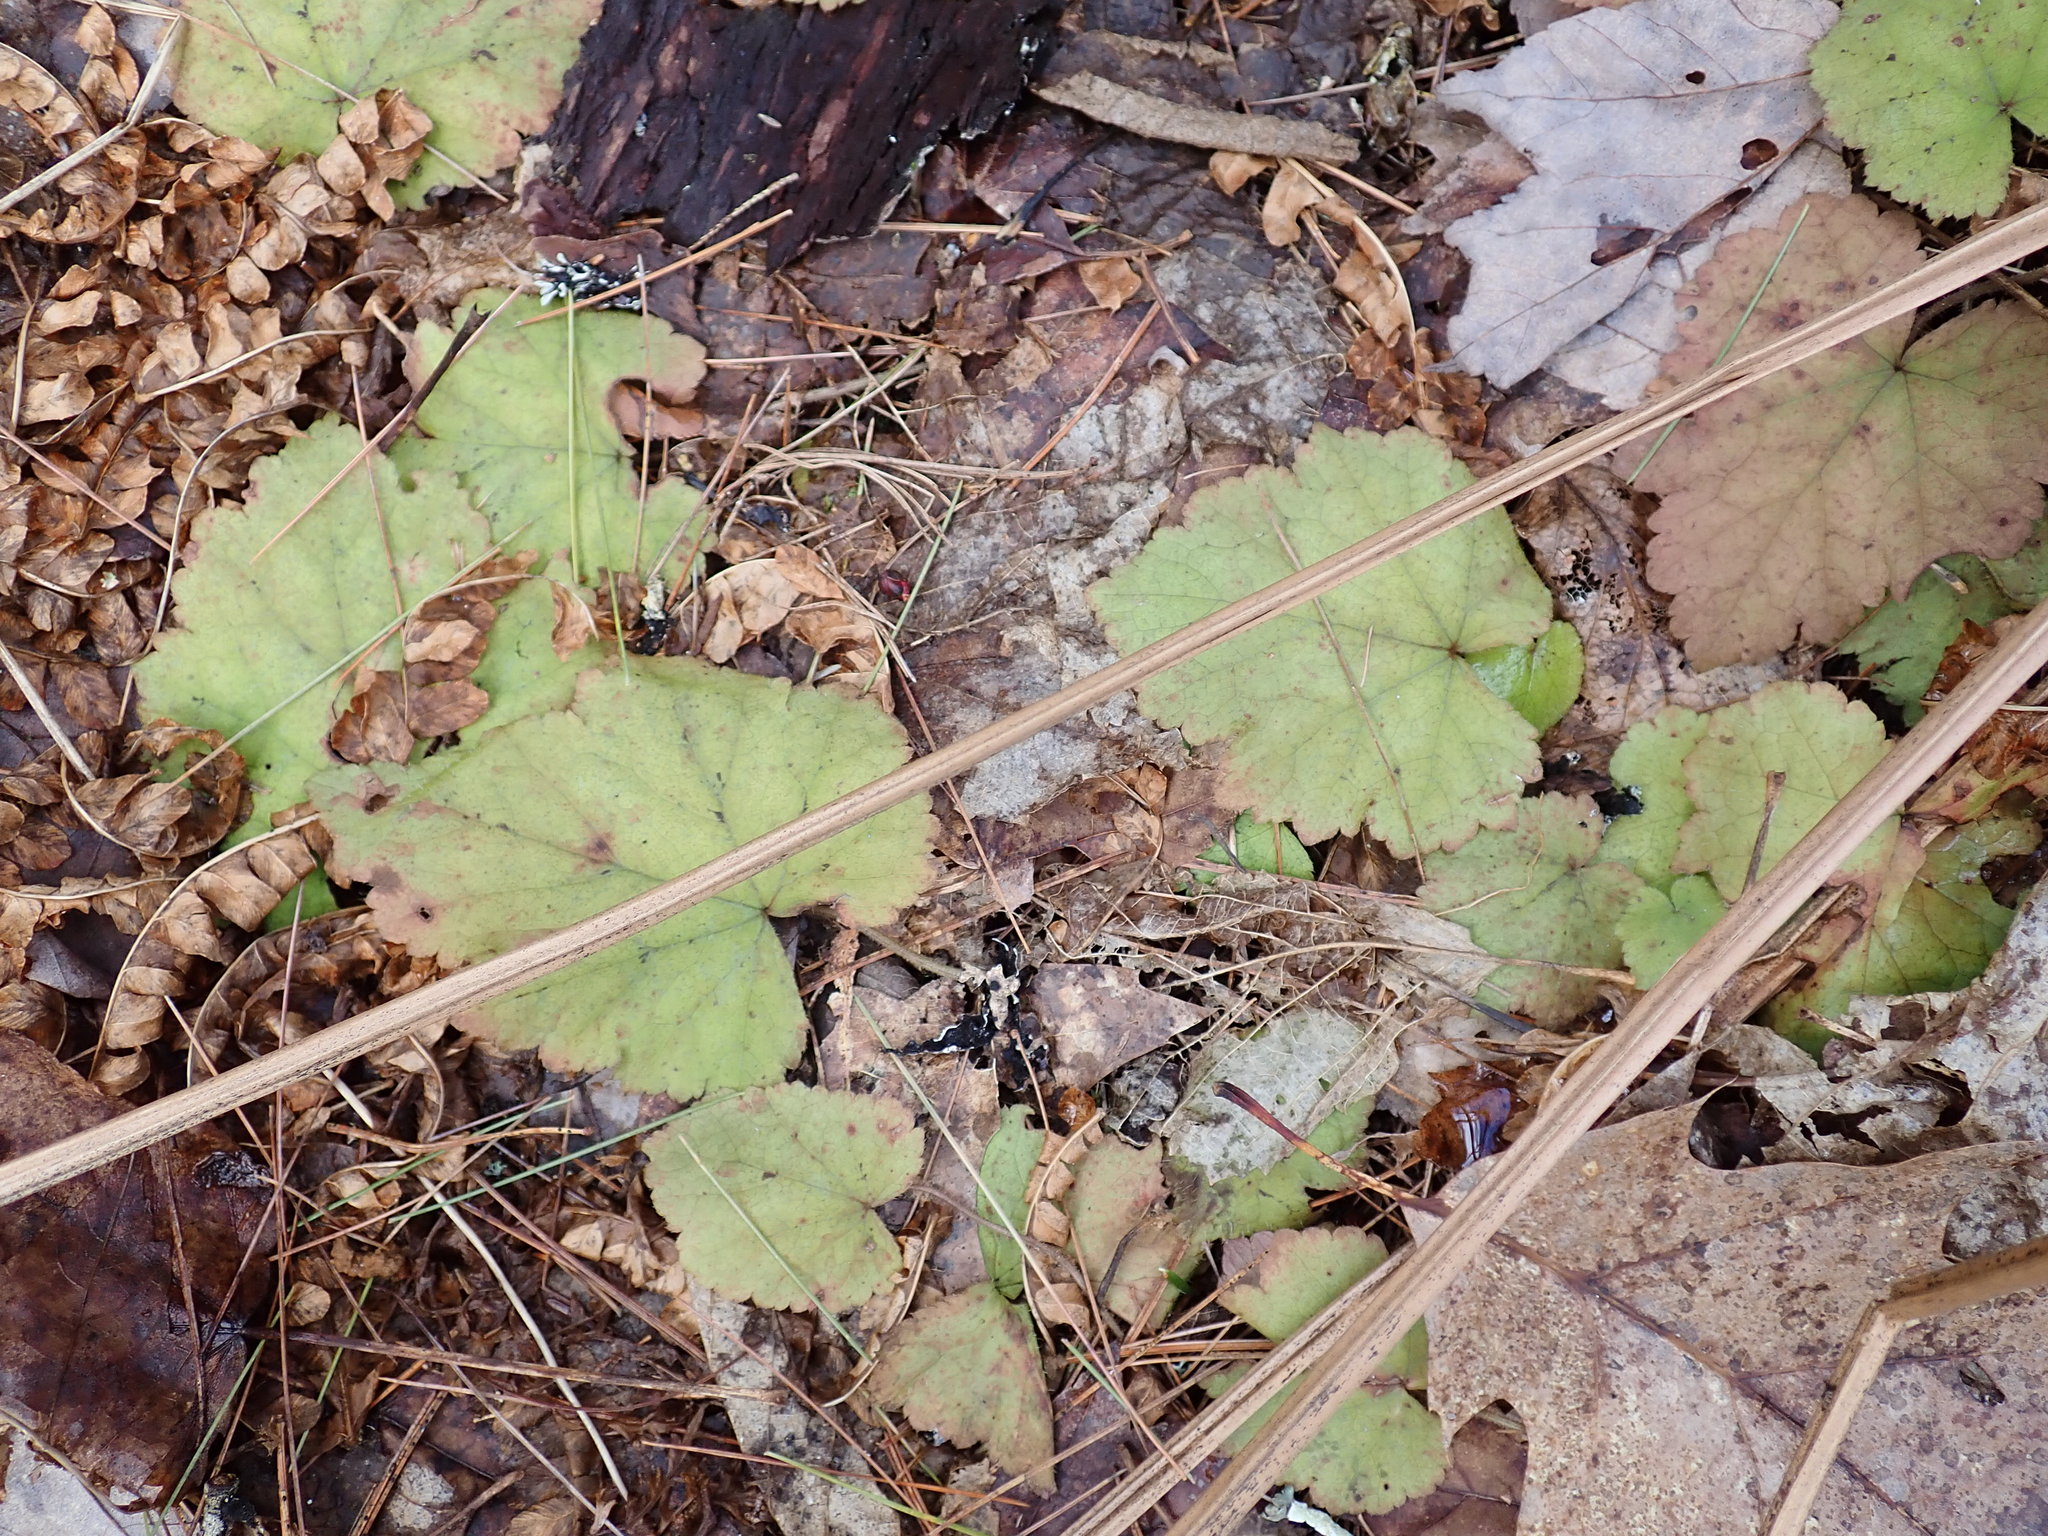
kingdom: Plantae
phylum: Tracheophyta
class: Magnoliopsida
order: Saxifragales
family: Saxifragaceae
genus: Tiarella
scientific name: Tiarella stolonifera
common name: Stoloniferous foamflower
